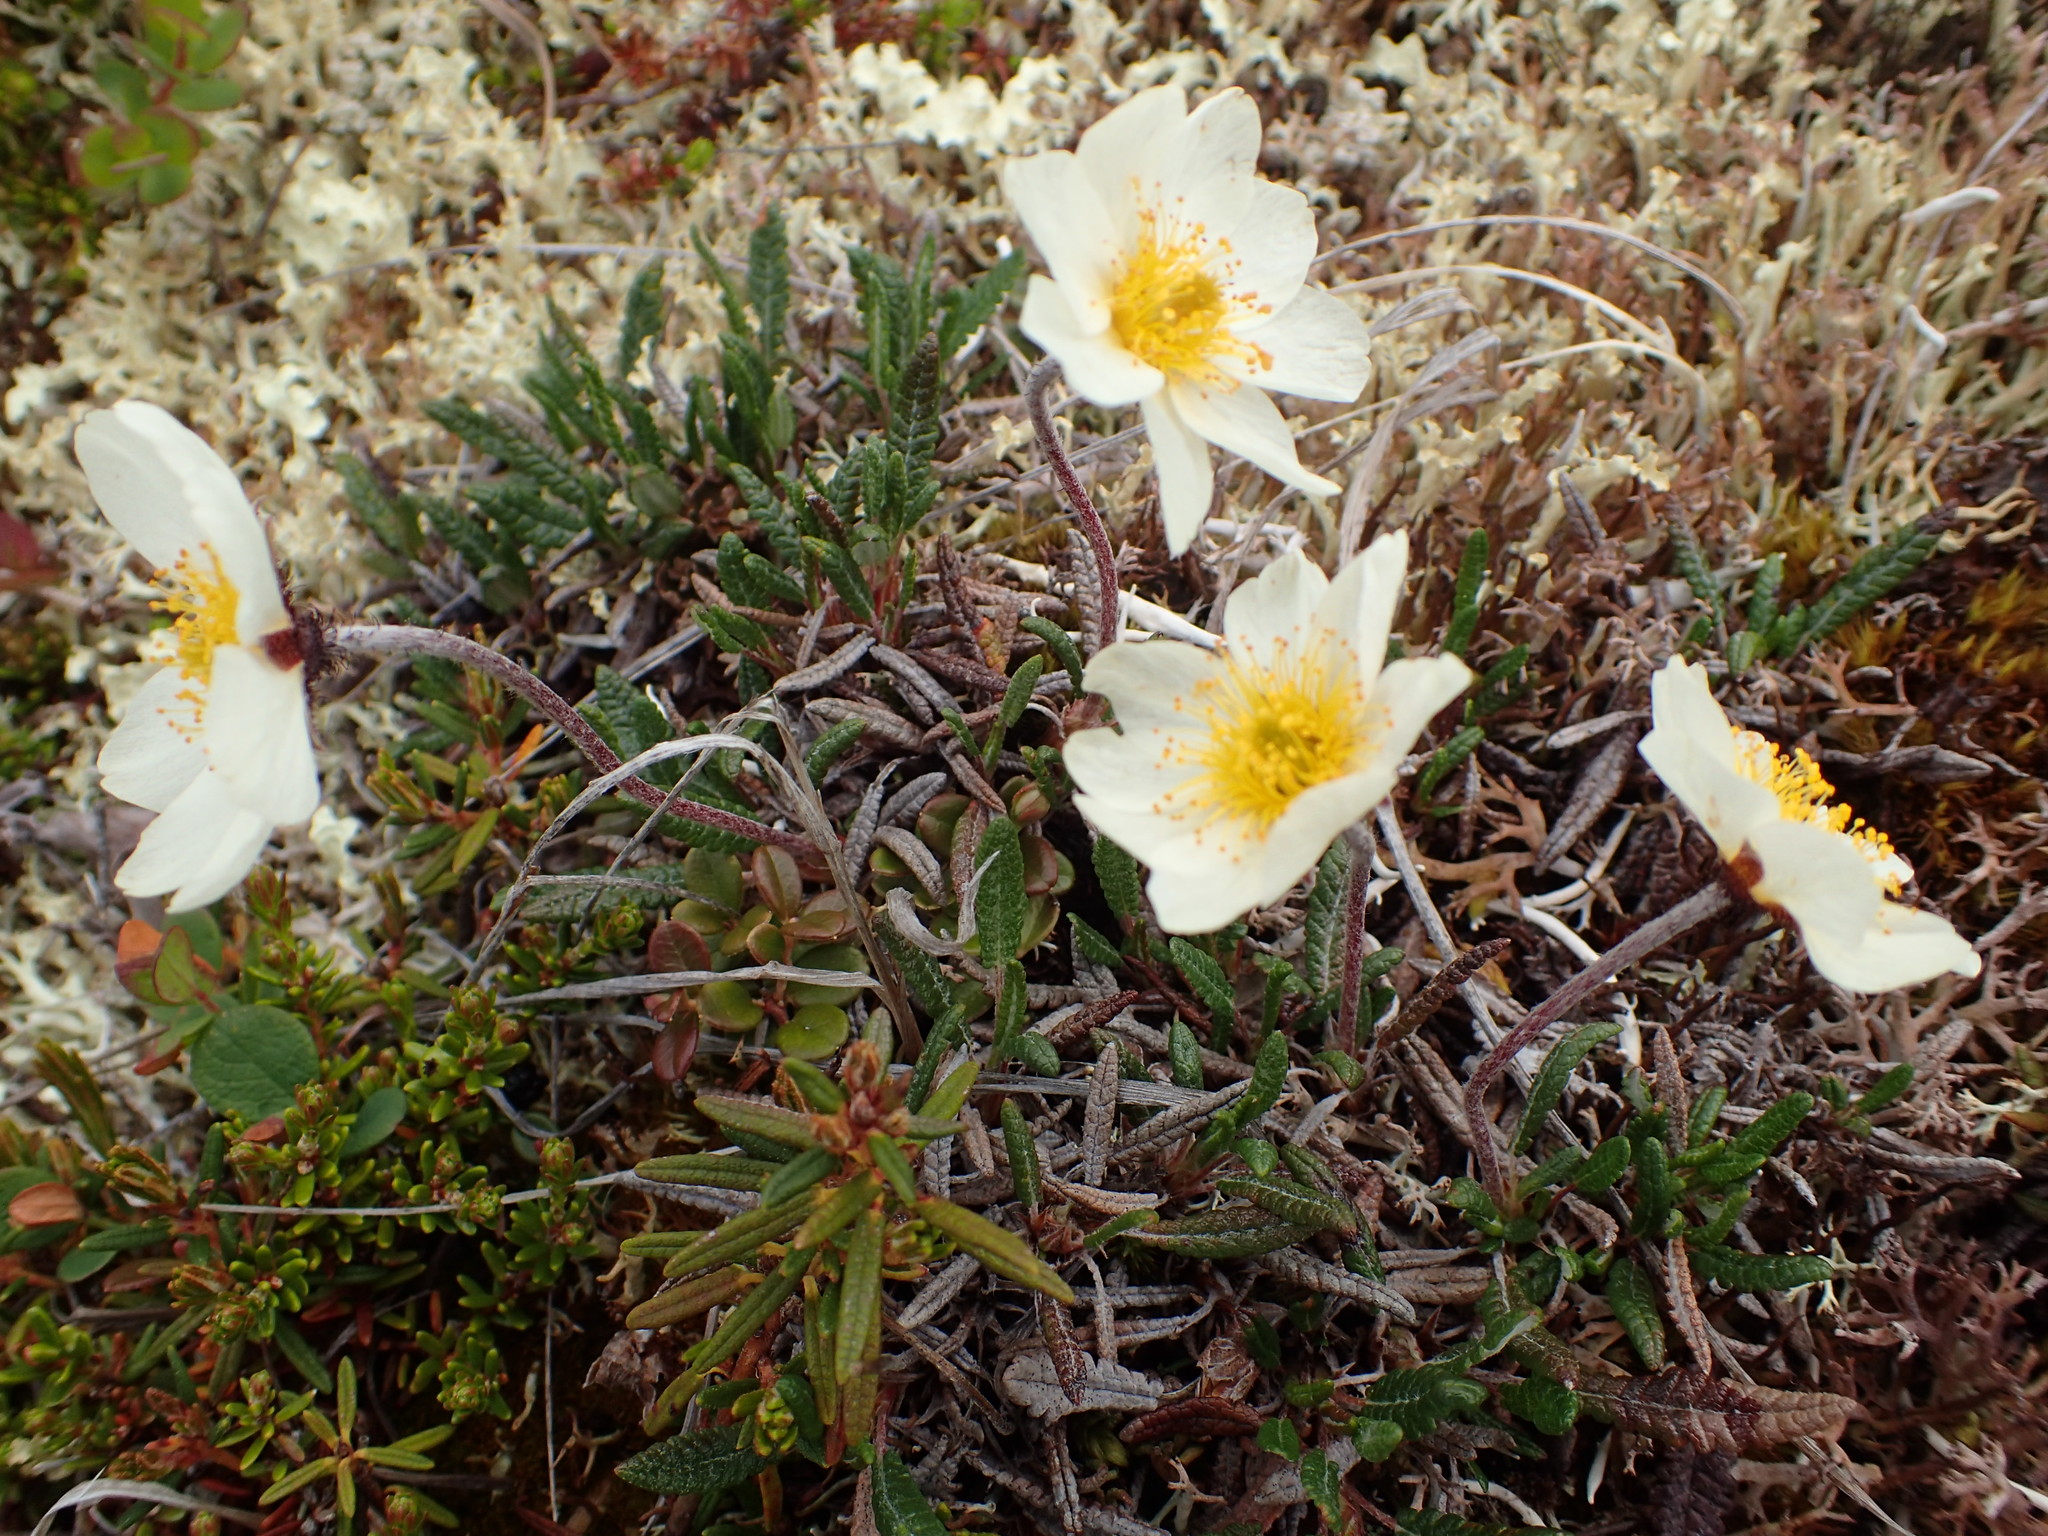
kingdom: Plantae
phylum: Tracheophyta
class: Magnoliopsida
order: Rosales
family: Rosaceae
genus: Dryas
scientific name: Dryas octopetala
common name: Eight-petal mountain-avens
